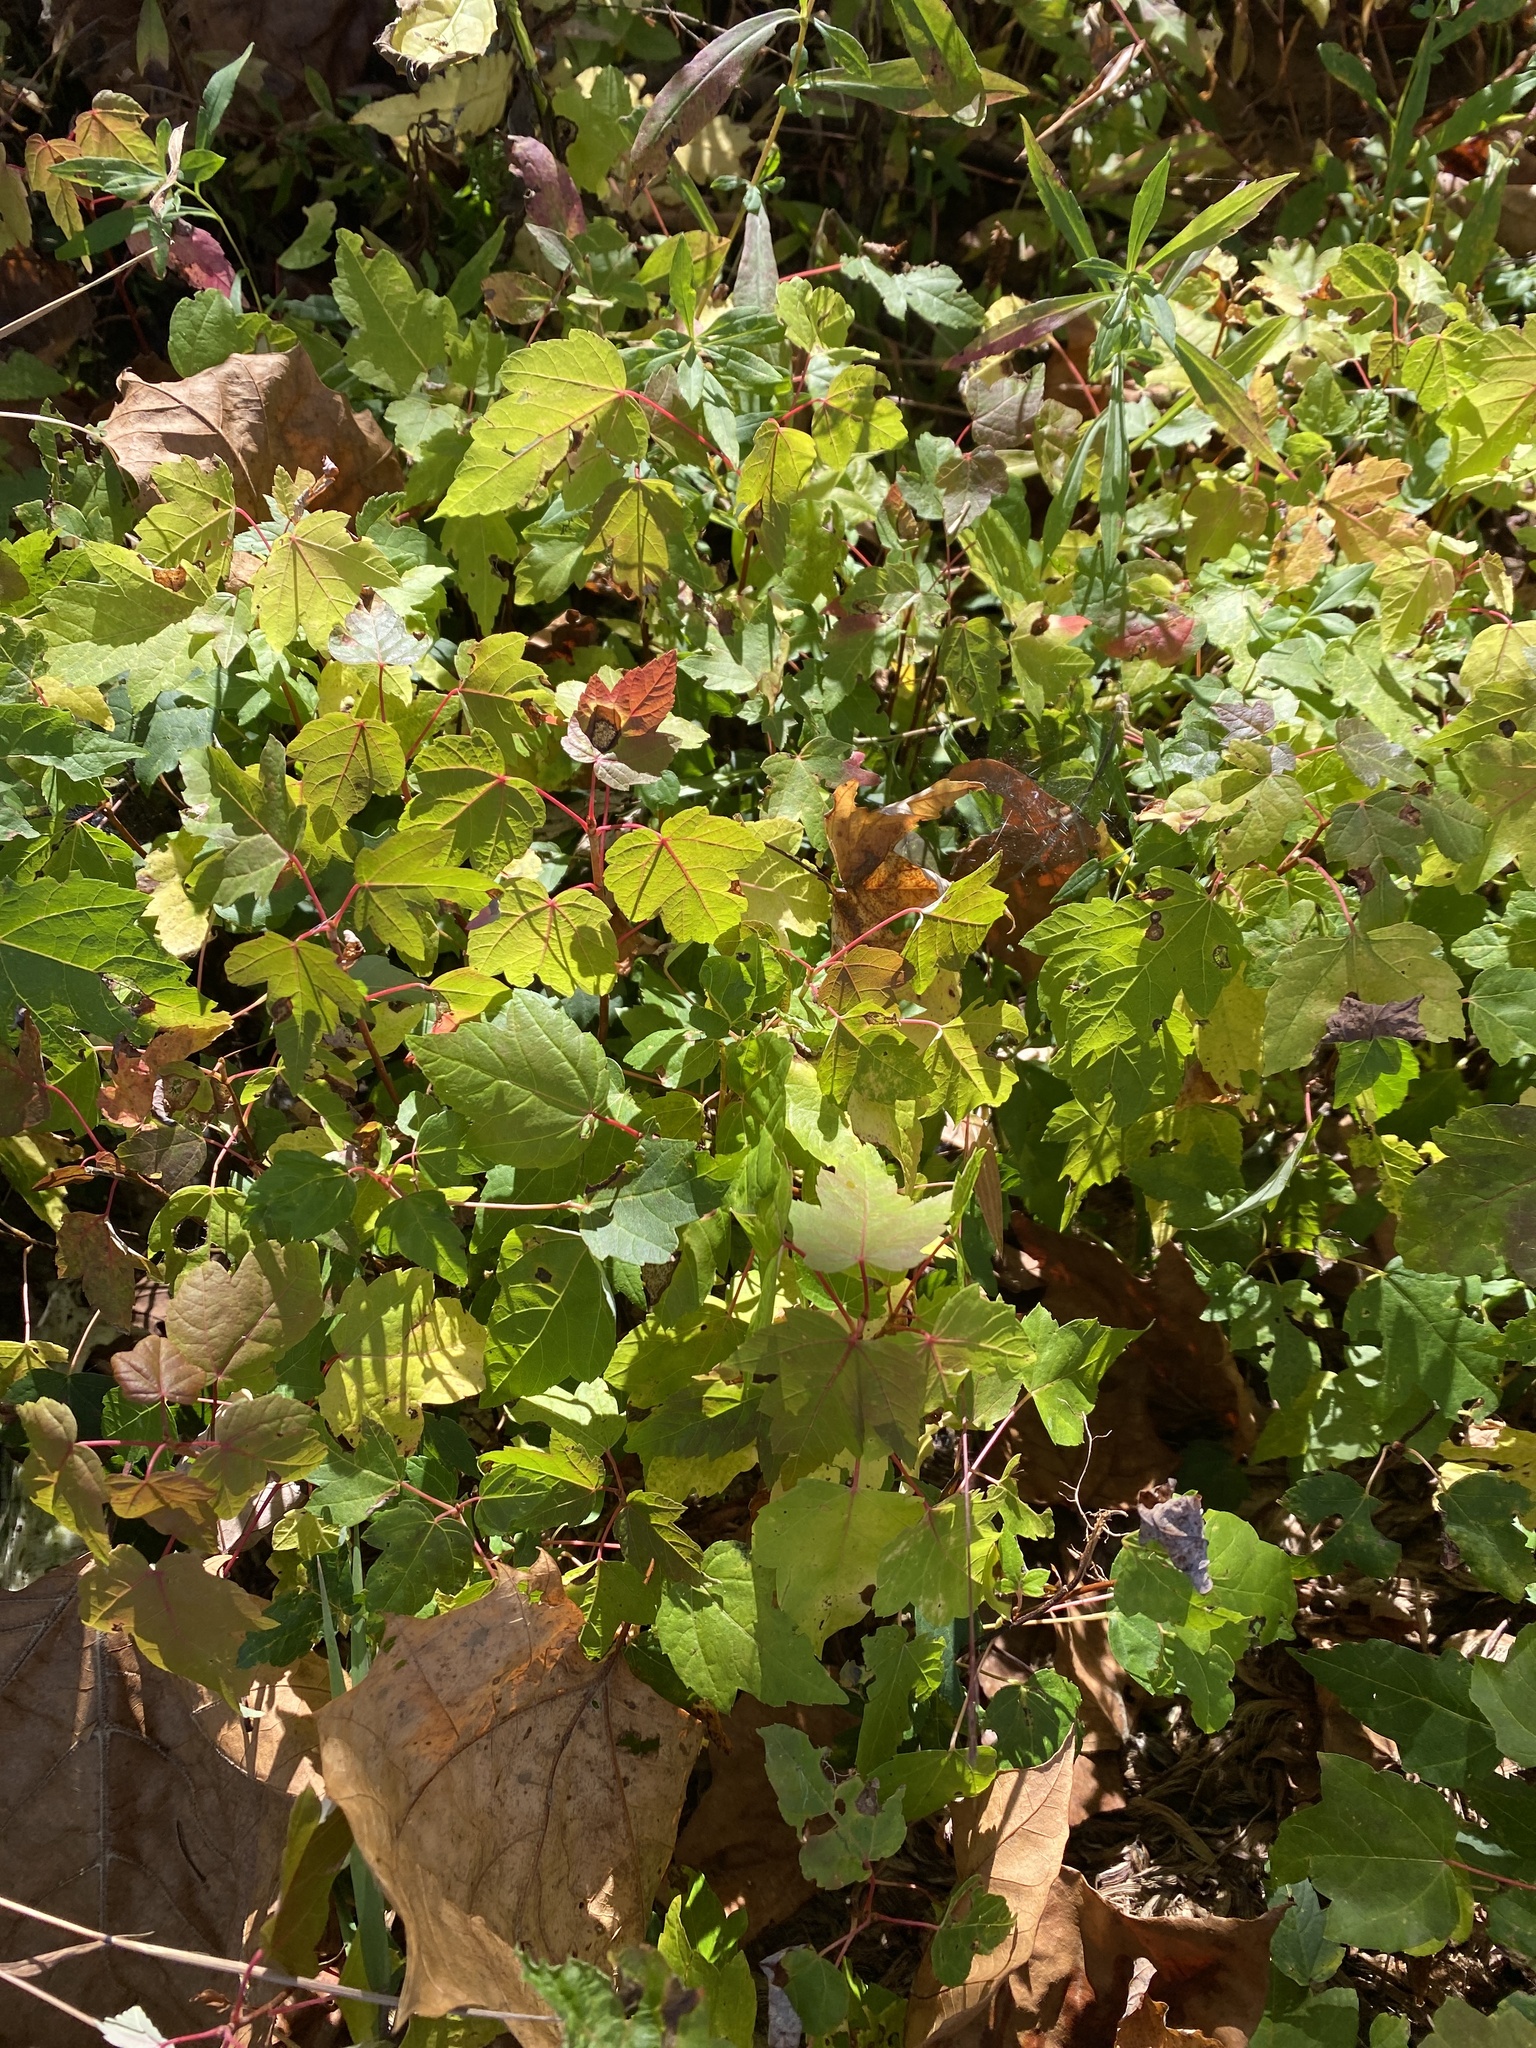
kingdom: Plantae
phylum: Tracheophyta
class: Magnoliopsida
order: Sapindales
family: Sapindaceae
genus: Acer
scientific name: Acer saccharinum
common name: Silver maple
